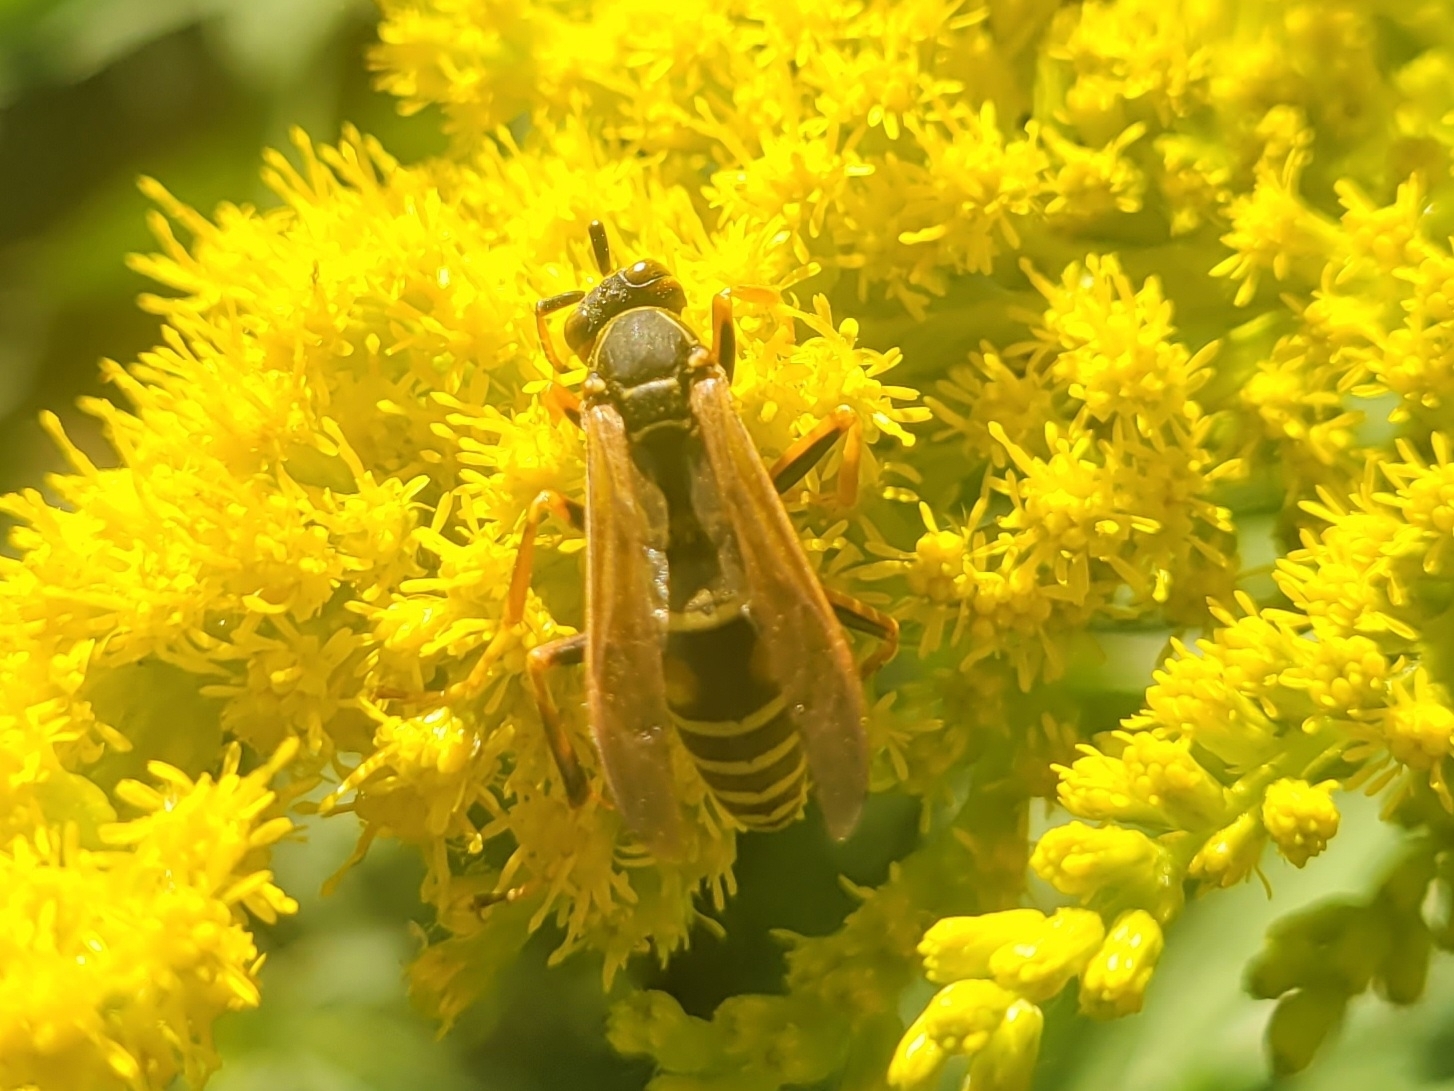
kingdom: Animalia
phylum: Arthropoda
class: Insecta
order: Hymenoptera
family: Eumenidae
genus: Polistes
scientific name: Polistes fuscatus
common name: Dark paper wasp
